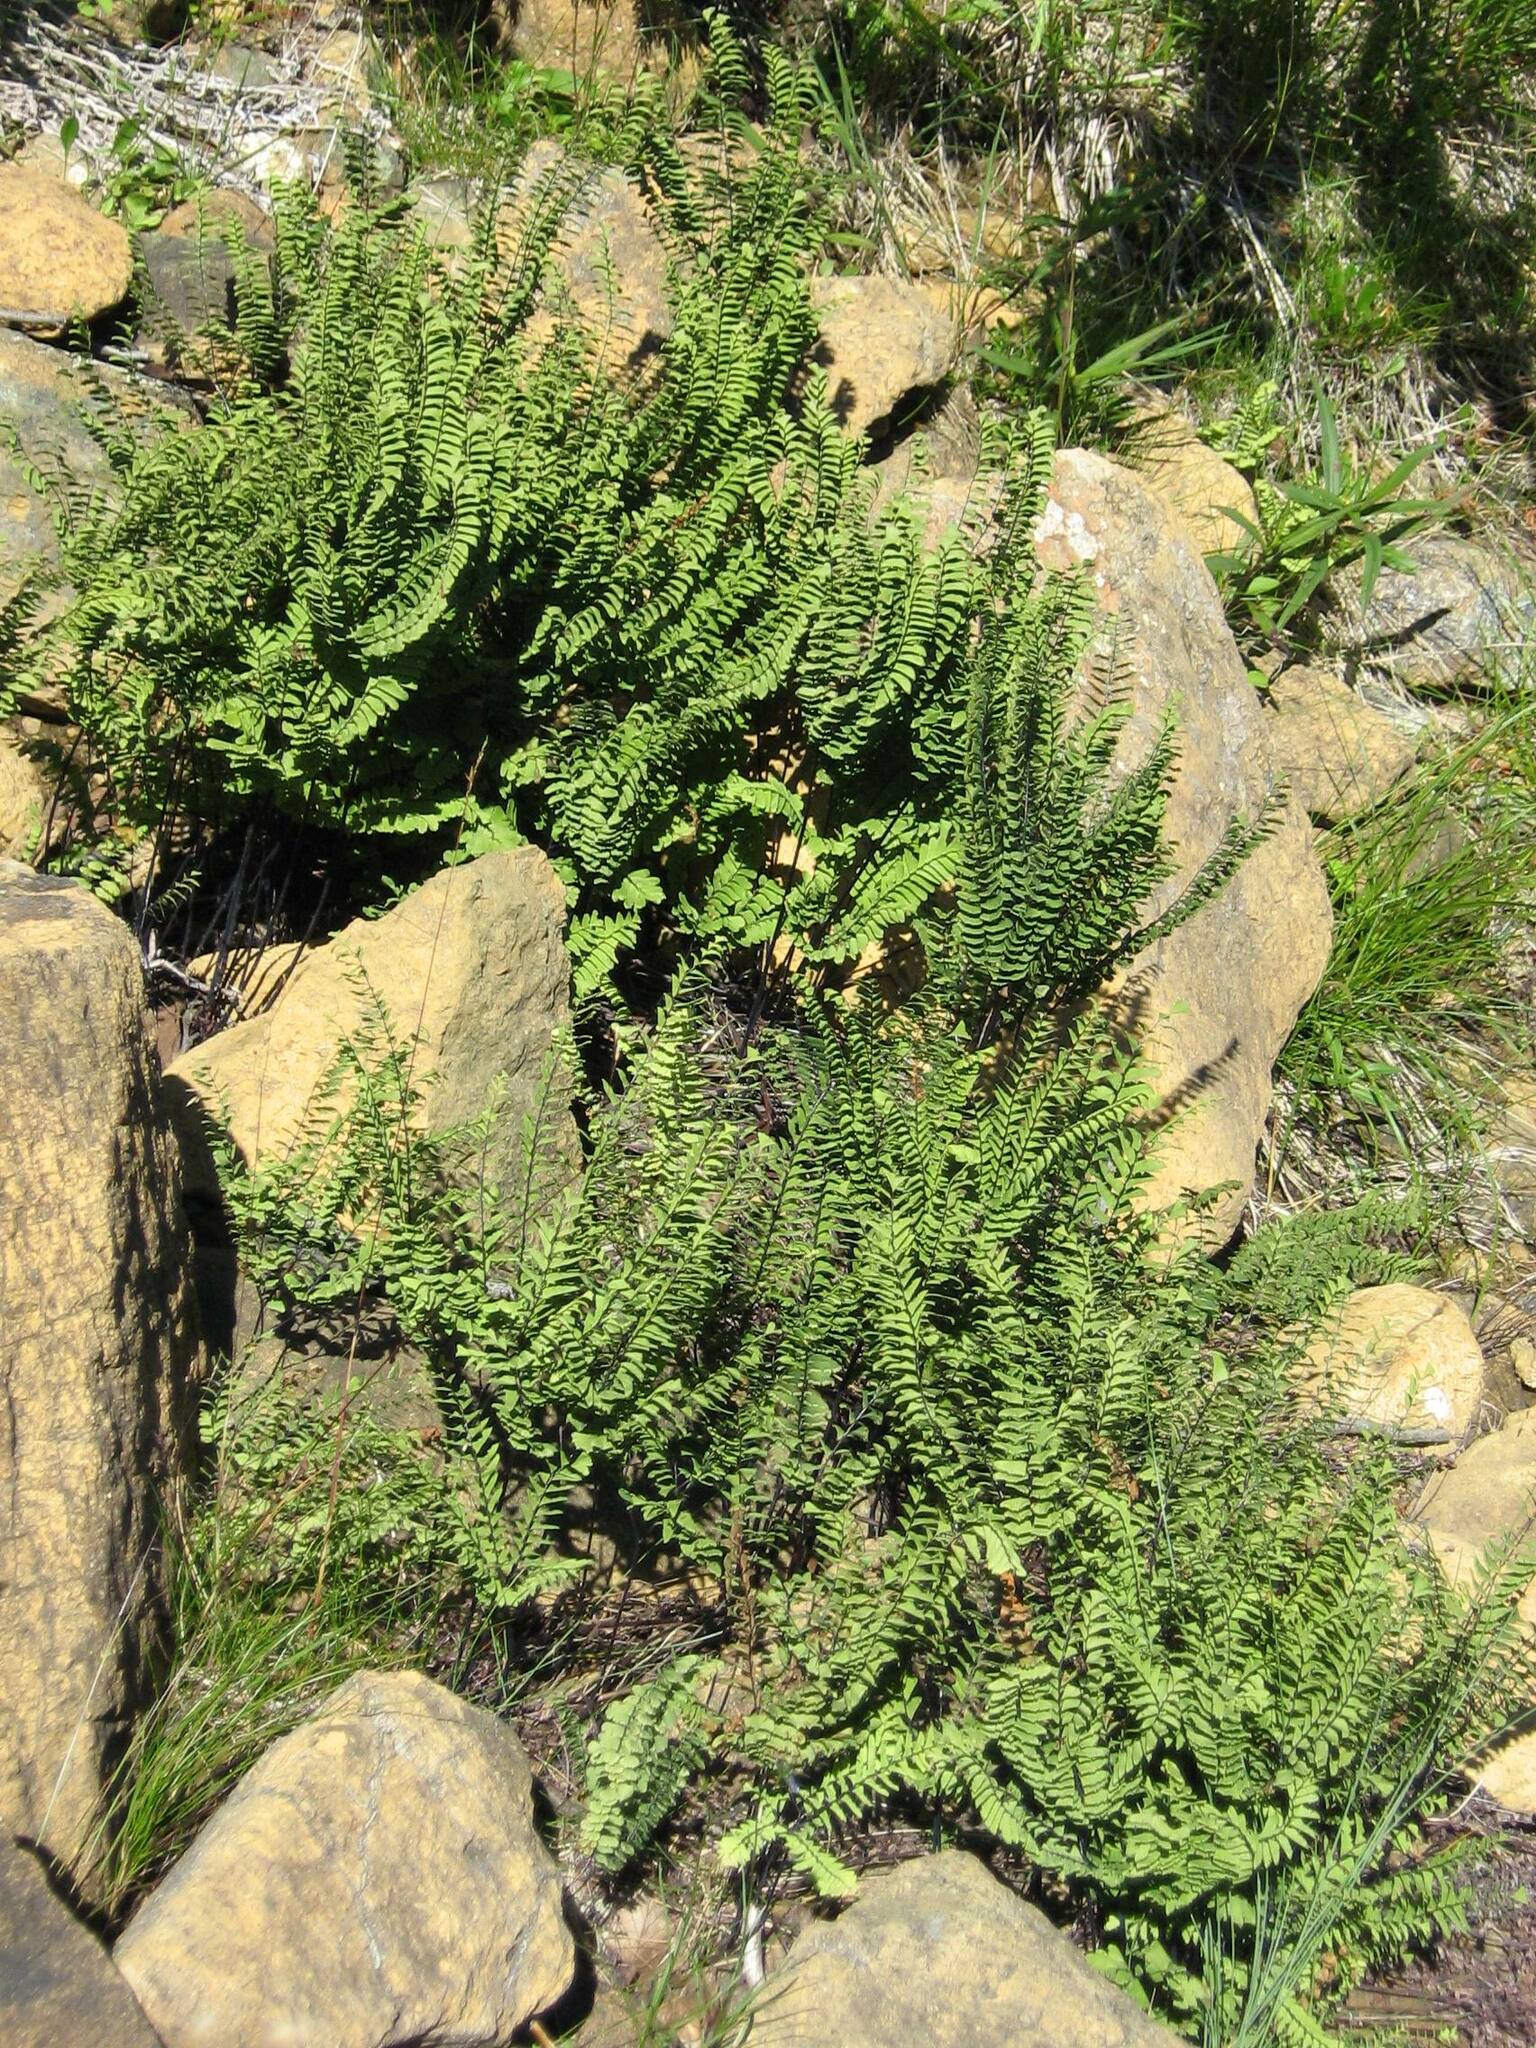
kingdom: Plantae
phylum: Tracheophyta
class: Polypodiopsida
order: Polypodiales
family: Pteridaceae
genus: Adiantum
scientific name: Adiantum aleuticum
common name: Aleutian maidenhair fern
